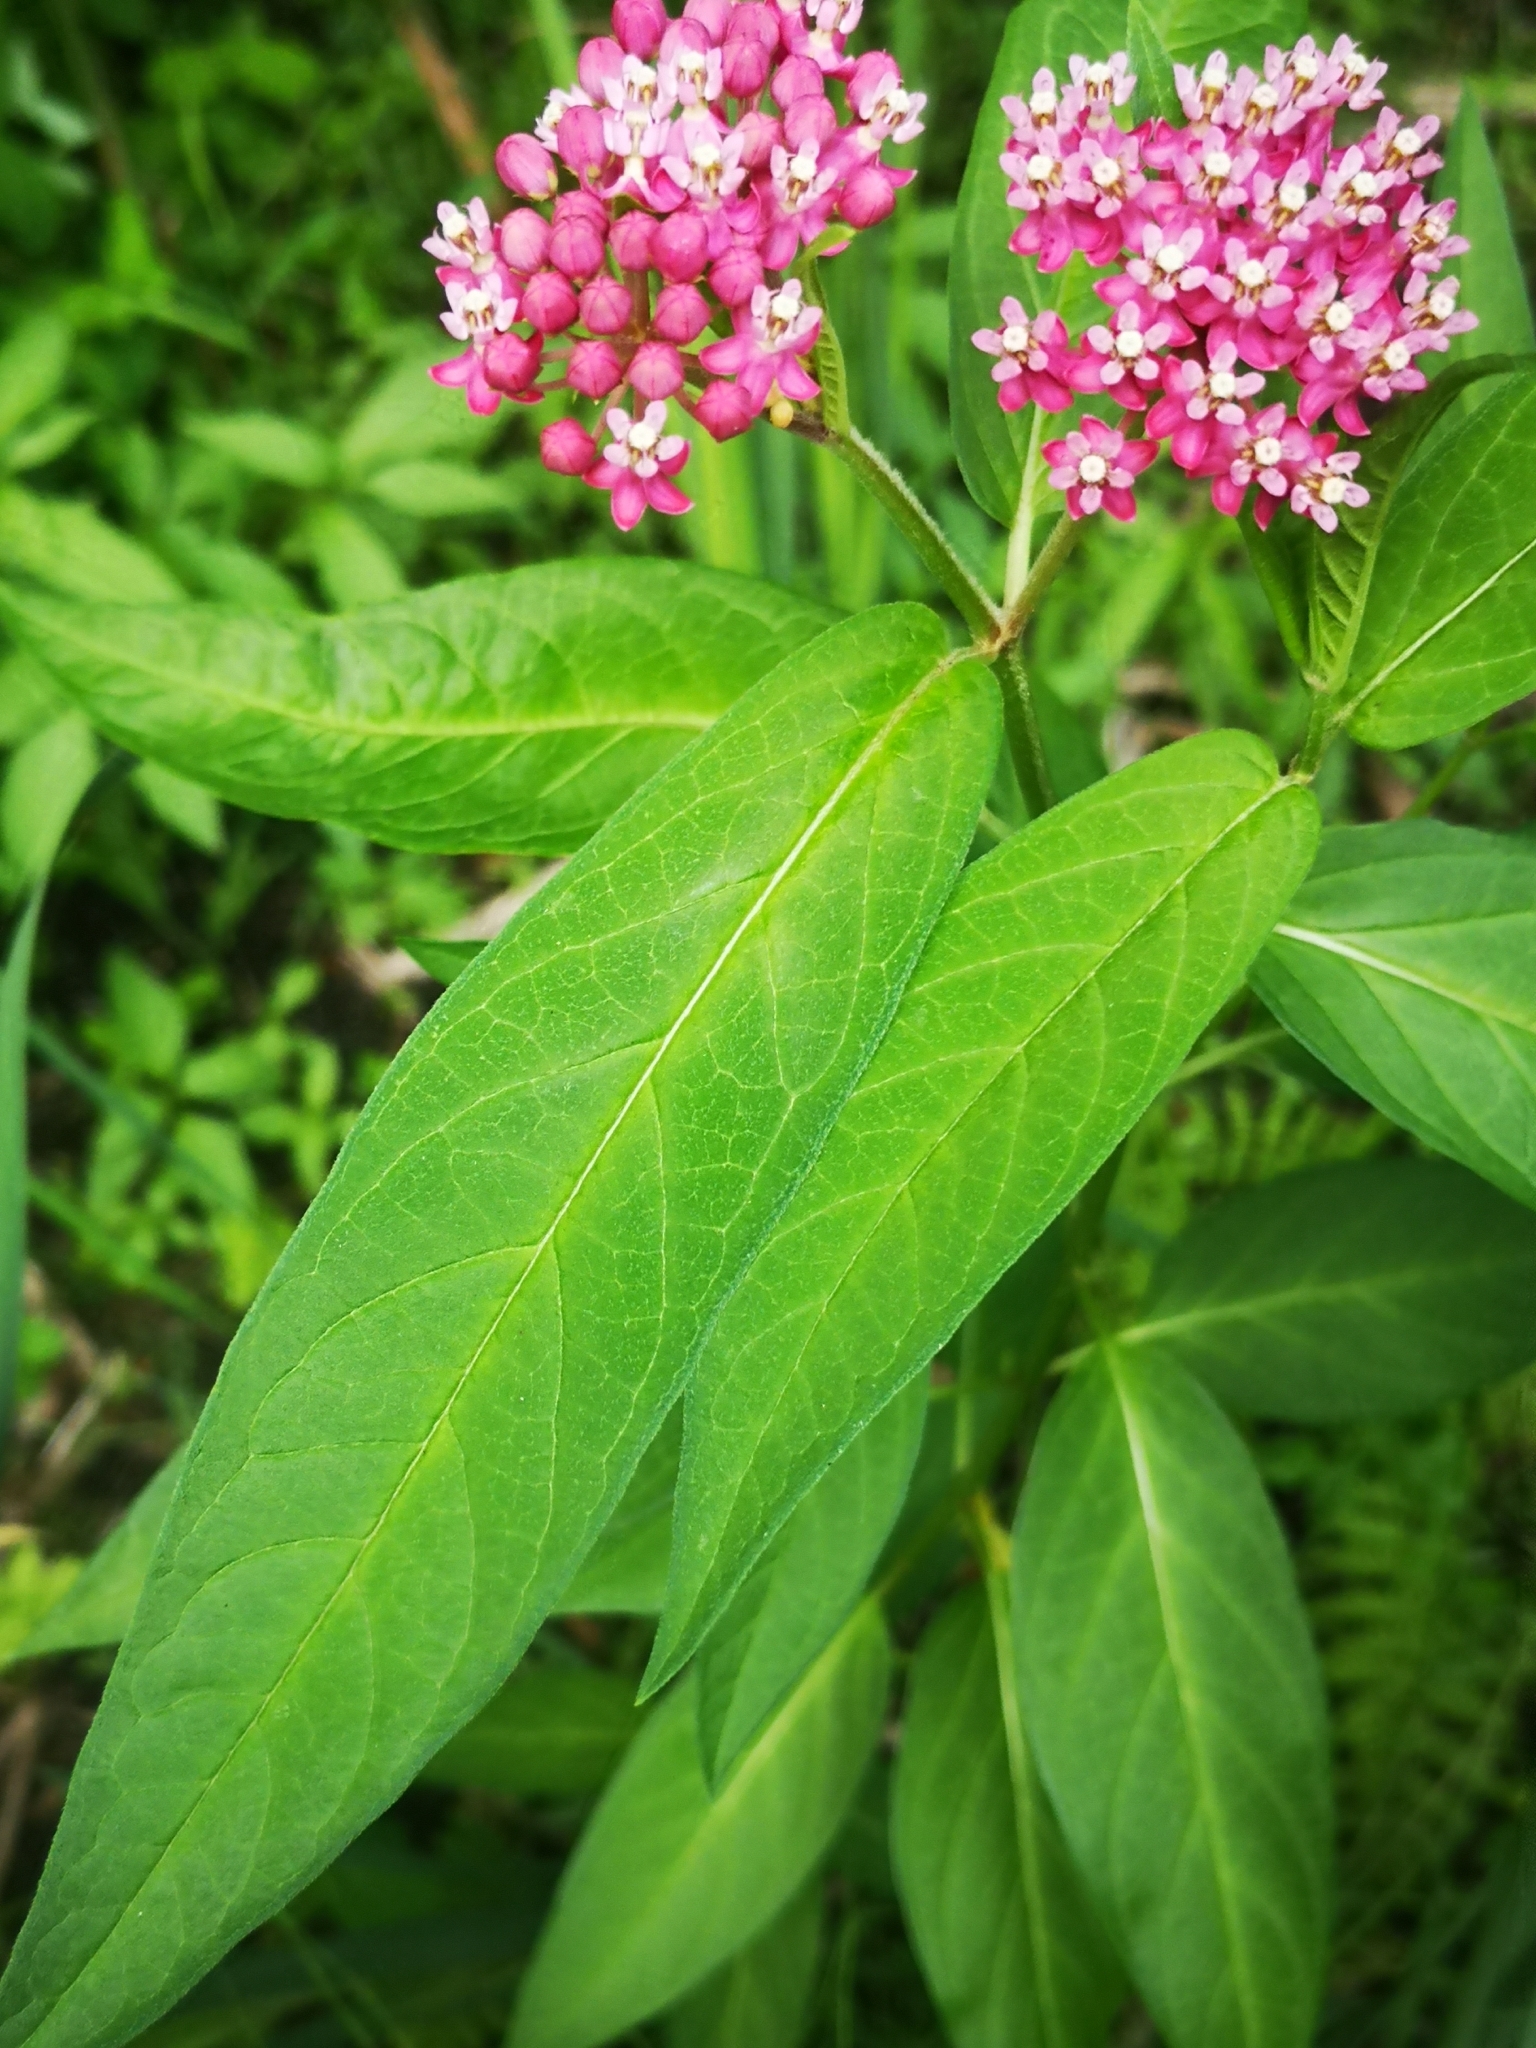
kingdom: Plantae
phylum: Tracheophyta
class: Magnoliopsida
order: Gentianales
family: Apocynaceae
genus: Asclepias
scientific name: Asclepias incarnata
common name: Swamp milkweed
